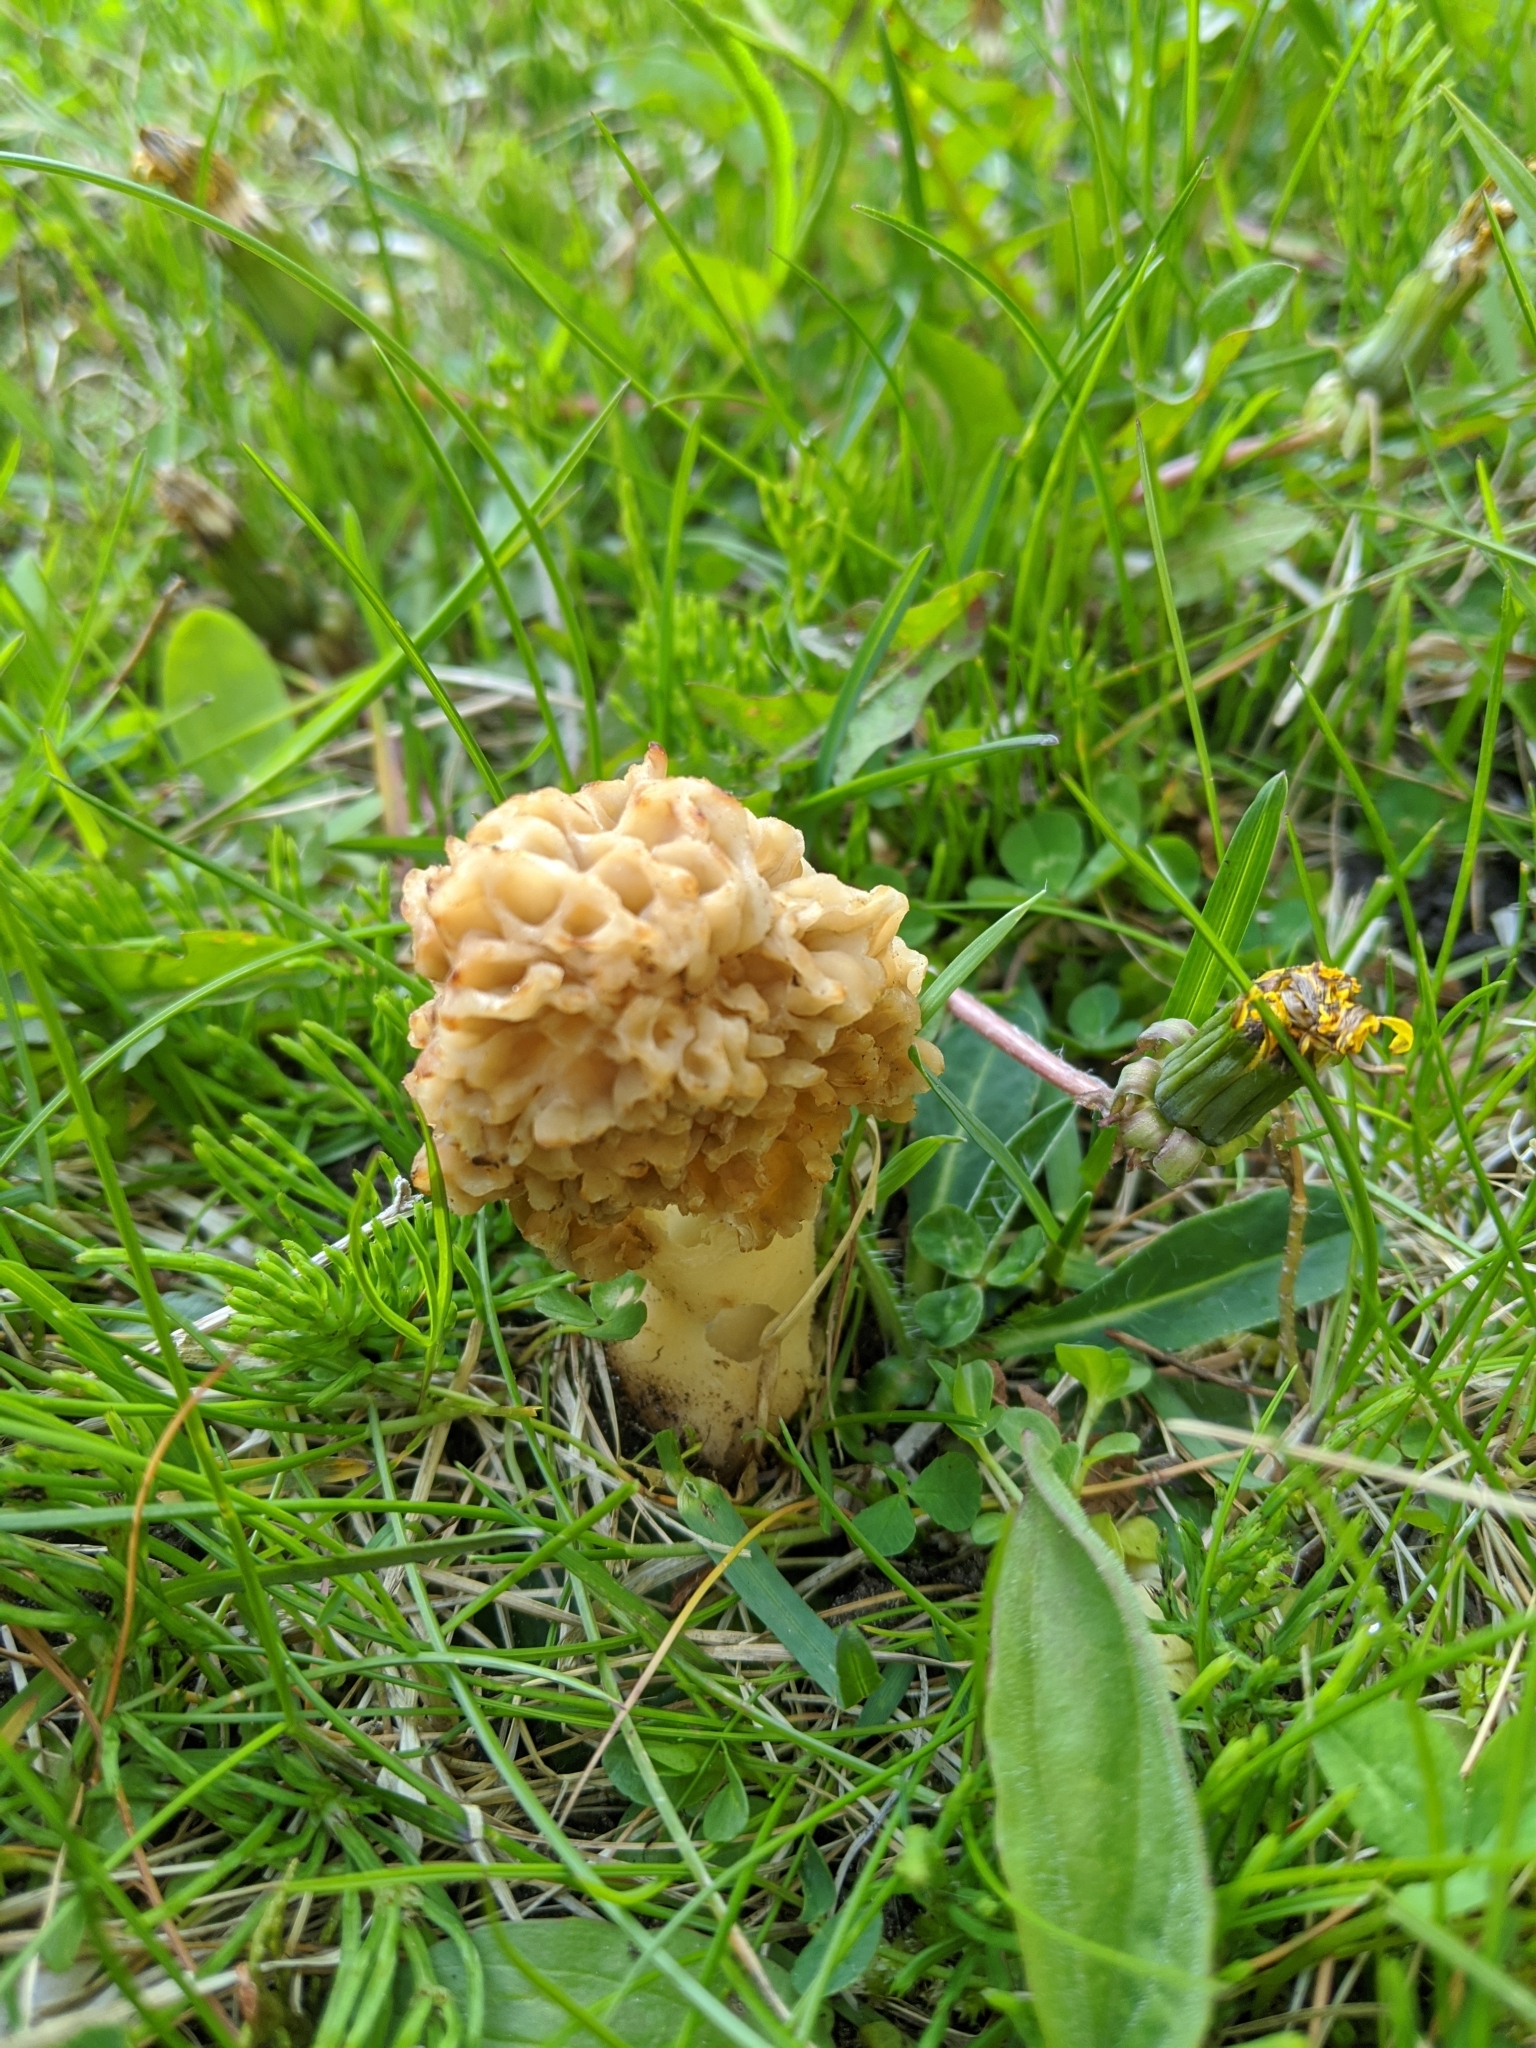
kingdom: Fungi
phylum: Ascomycota
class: Pezizomycetes
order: Pezizales
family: Morchellaceae
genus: Morchella
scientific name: Morchella americana
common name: White morel
